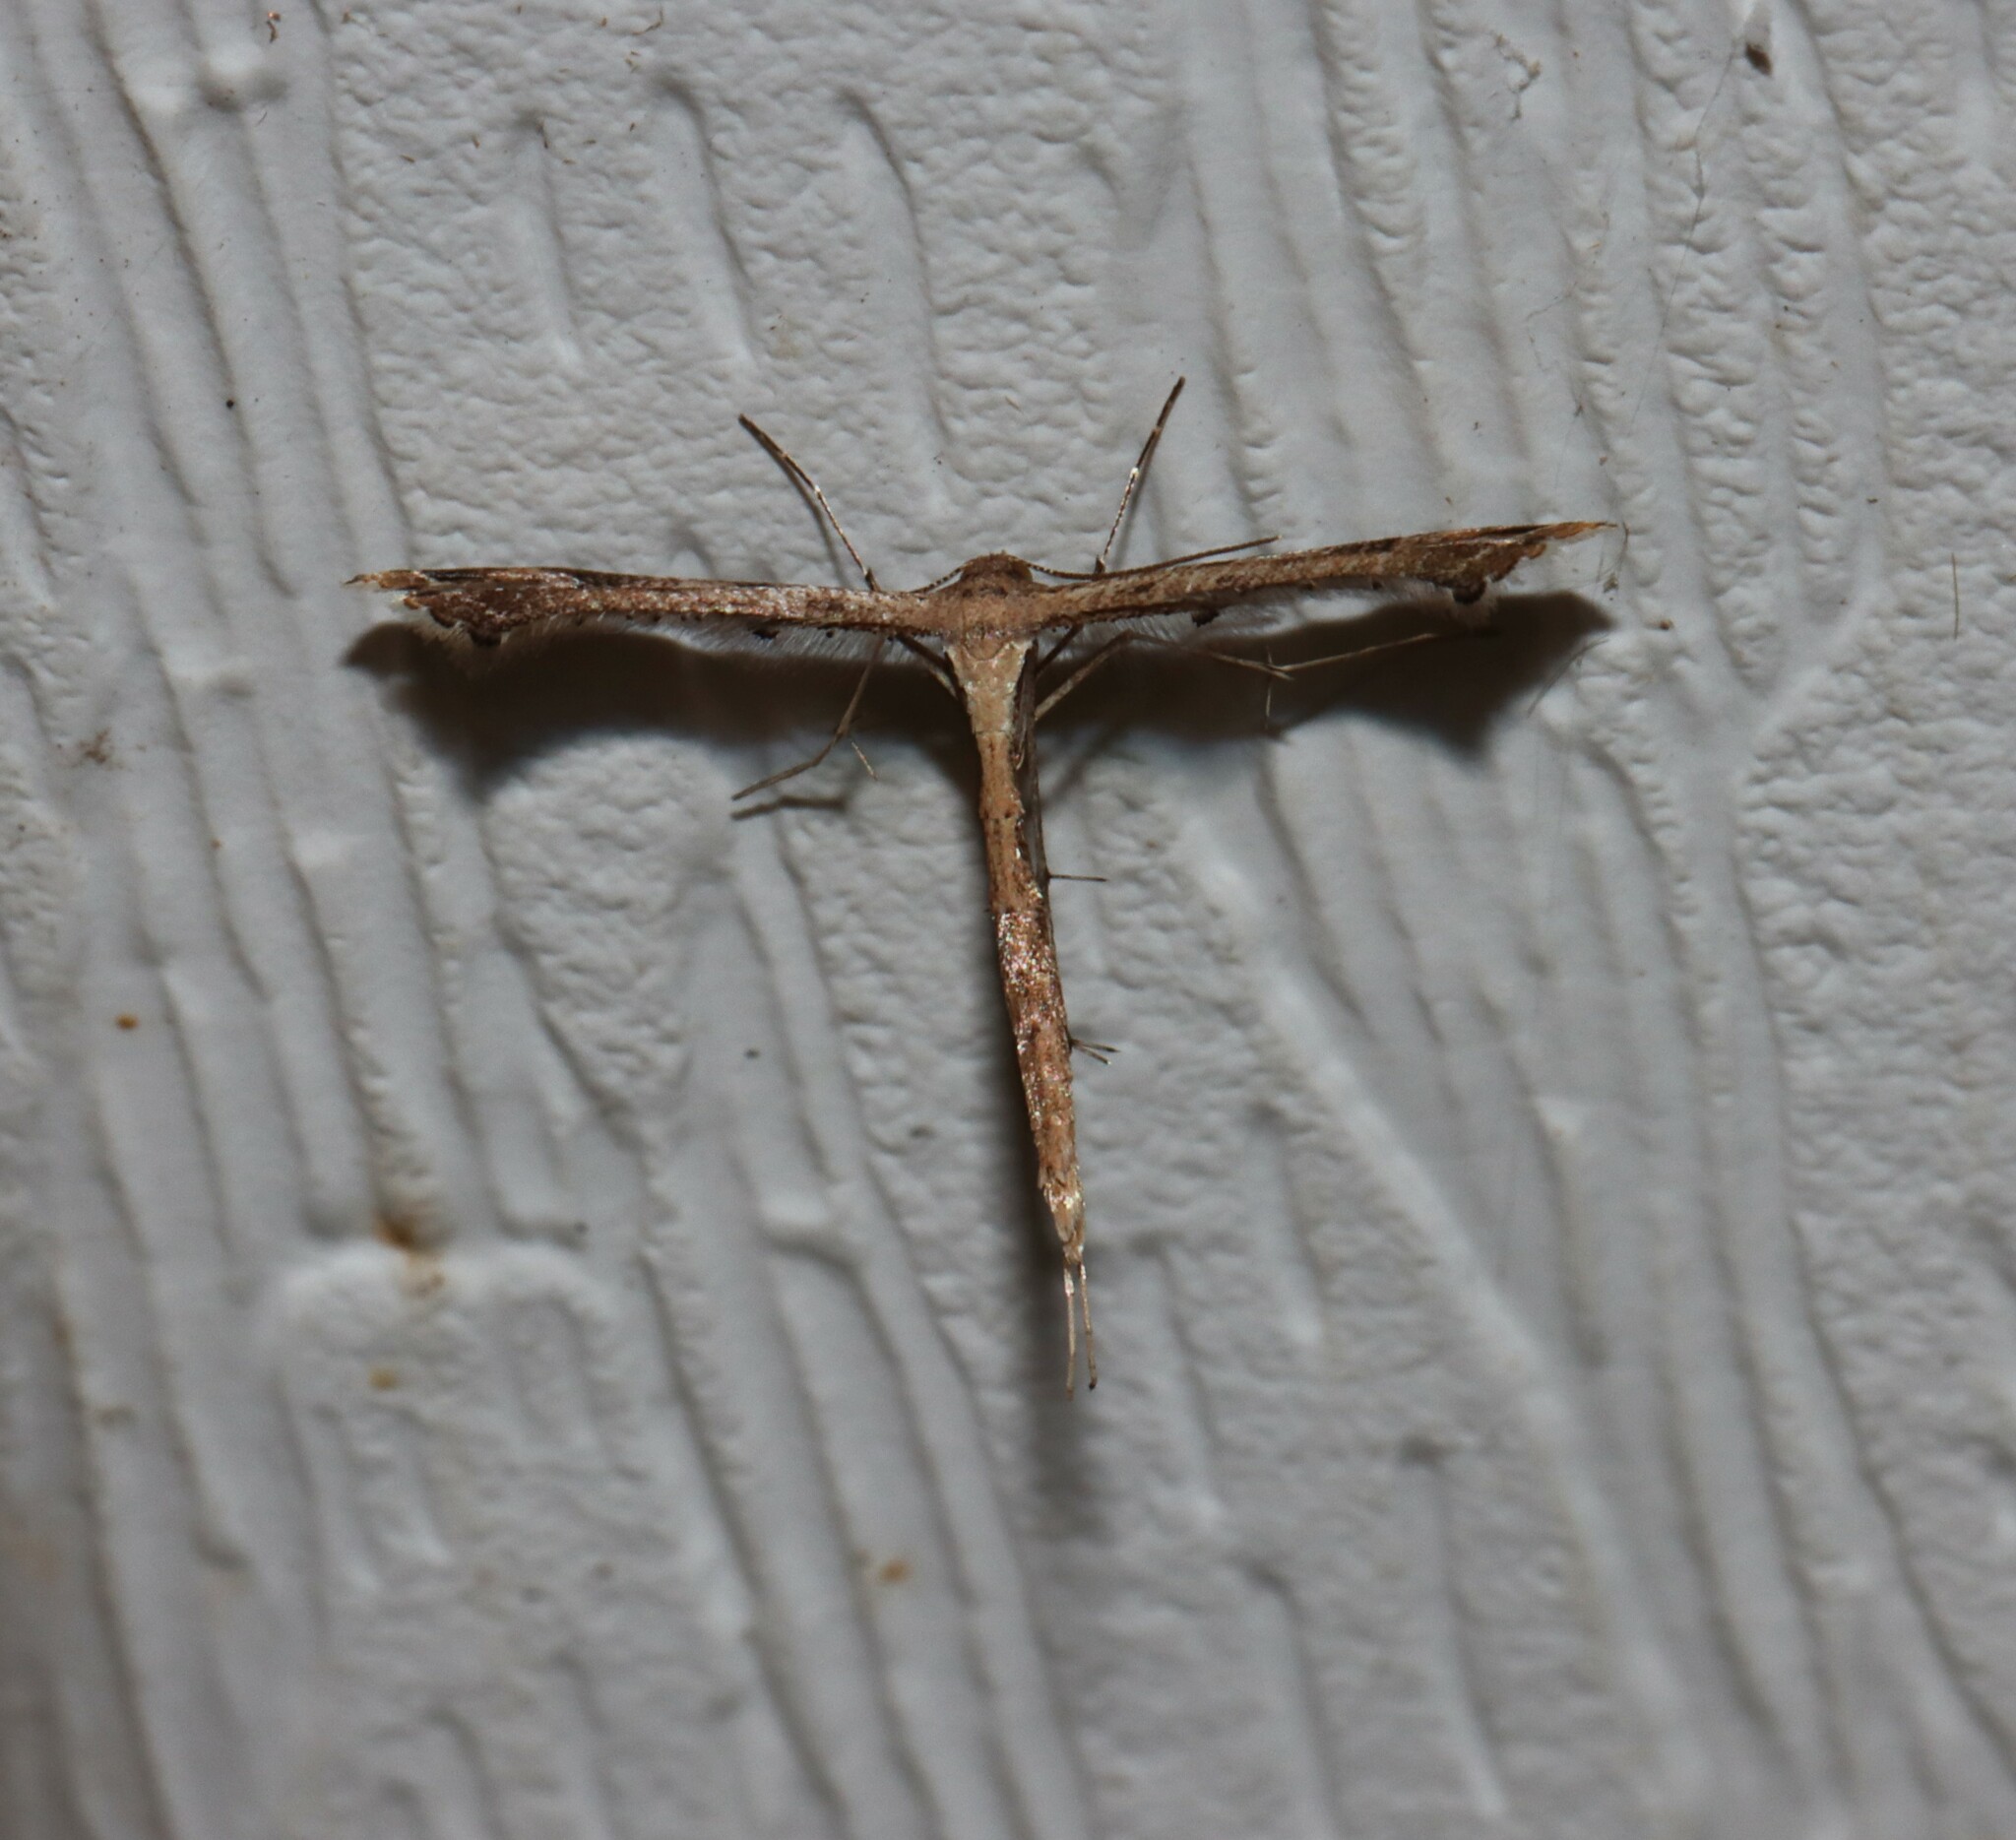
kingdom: Animalia
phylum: Arthropoda
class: Insecta
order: Lepidoptera
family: Pterophoridae
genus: Stenoptilodes
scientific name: Stenoptilodes
